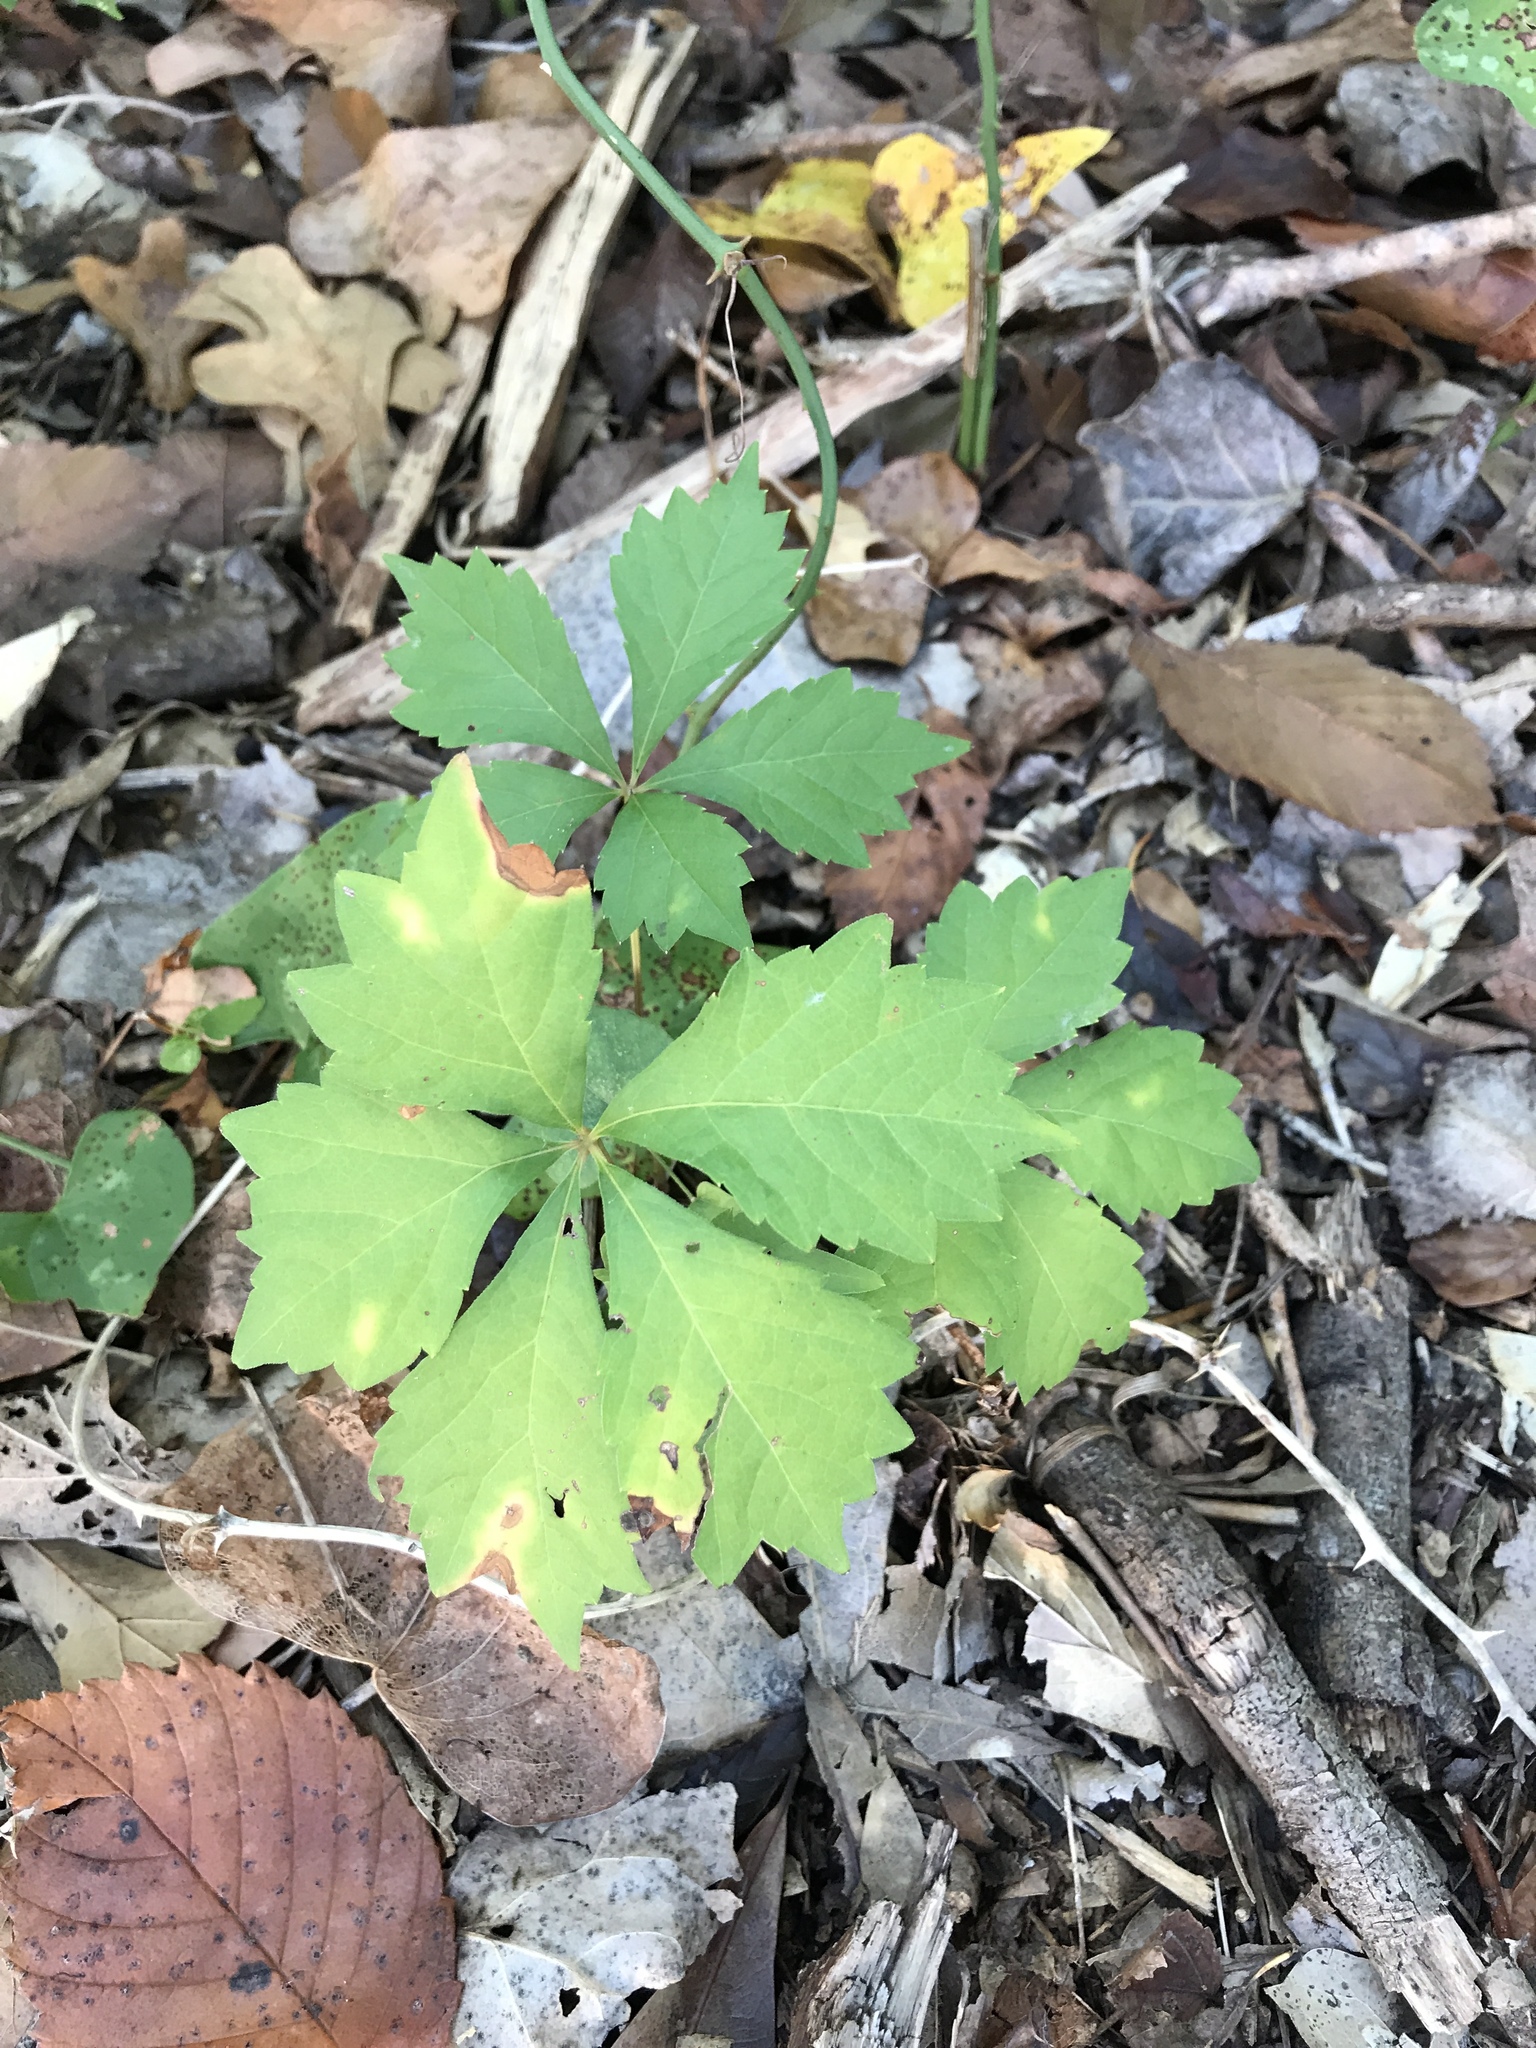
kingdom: Plantae
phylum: Tracheophyta
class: Magnoliopsida
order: Vitales
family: Vitaceae
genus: Parthenocissus
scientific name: Parthenocissus quinquefolia
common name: Virginia-creeper
